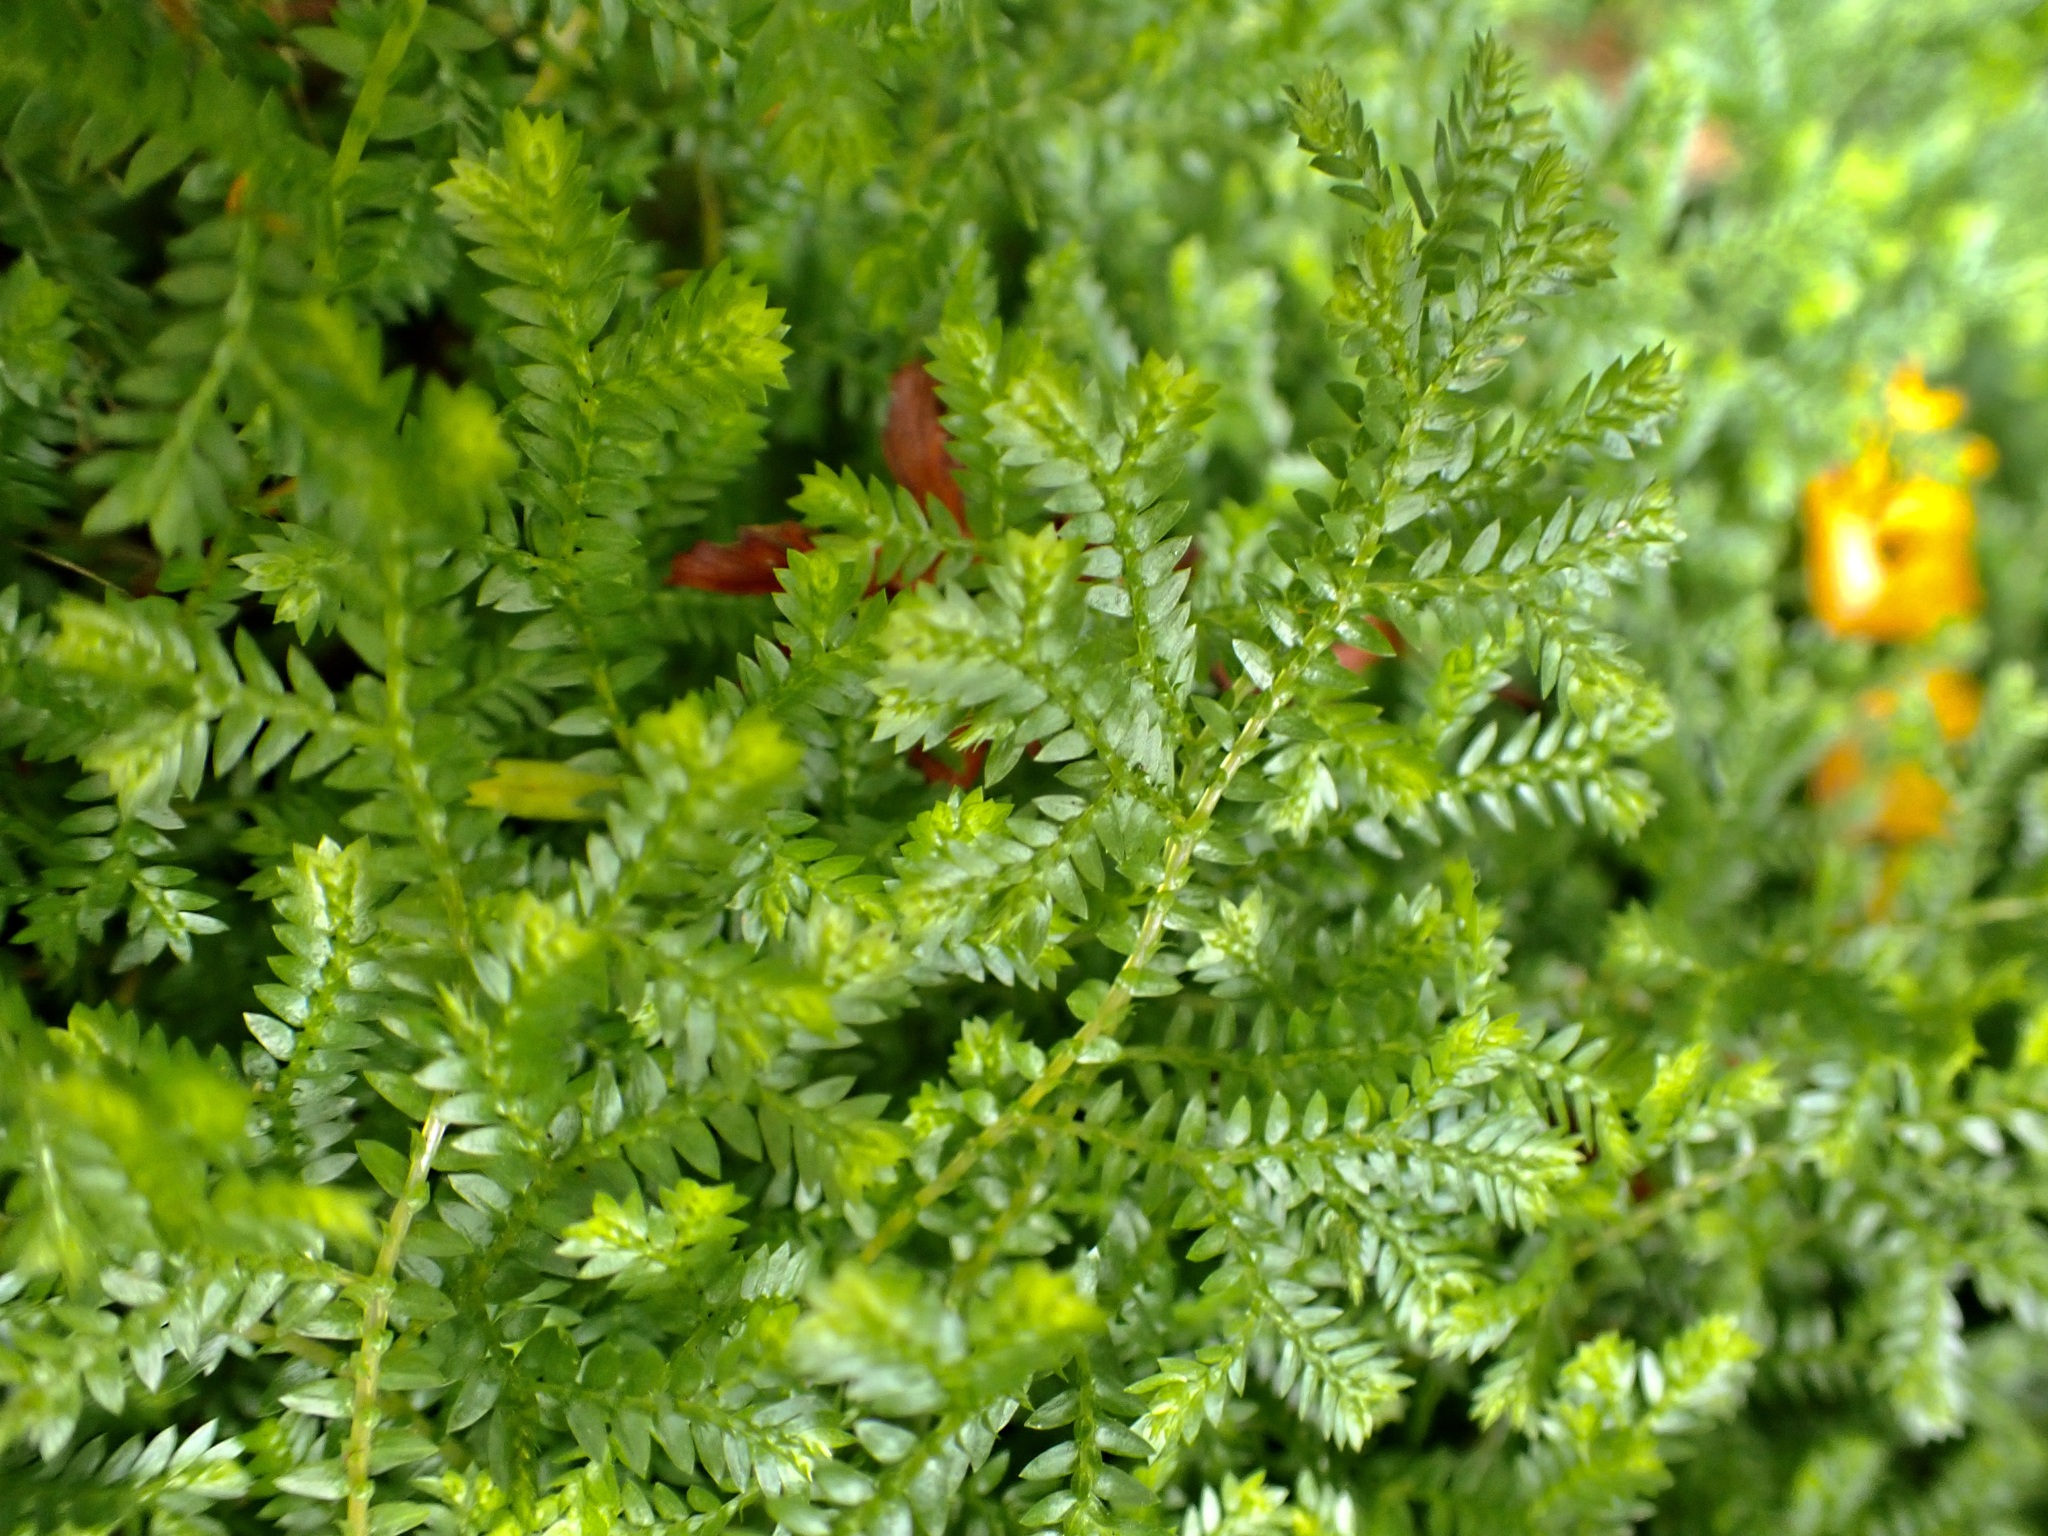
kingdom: Plantae
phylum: Tracheophyta
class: Lycopodiopsida
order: Selaginellales
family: Selaginellaceae
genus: Selaginella
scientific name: Selaginella kraussiana
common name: Krauss' spikemoss
